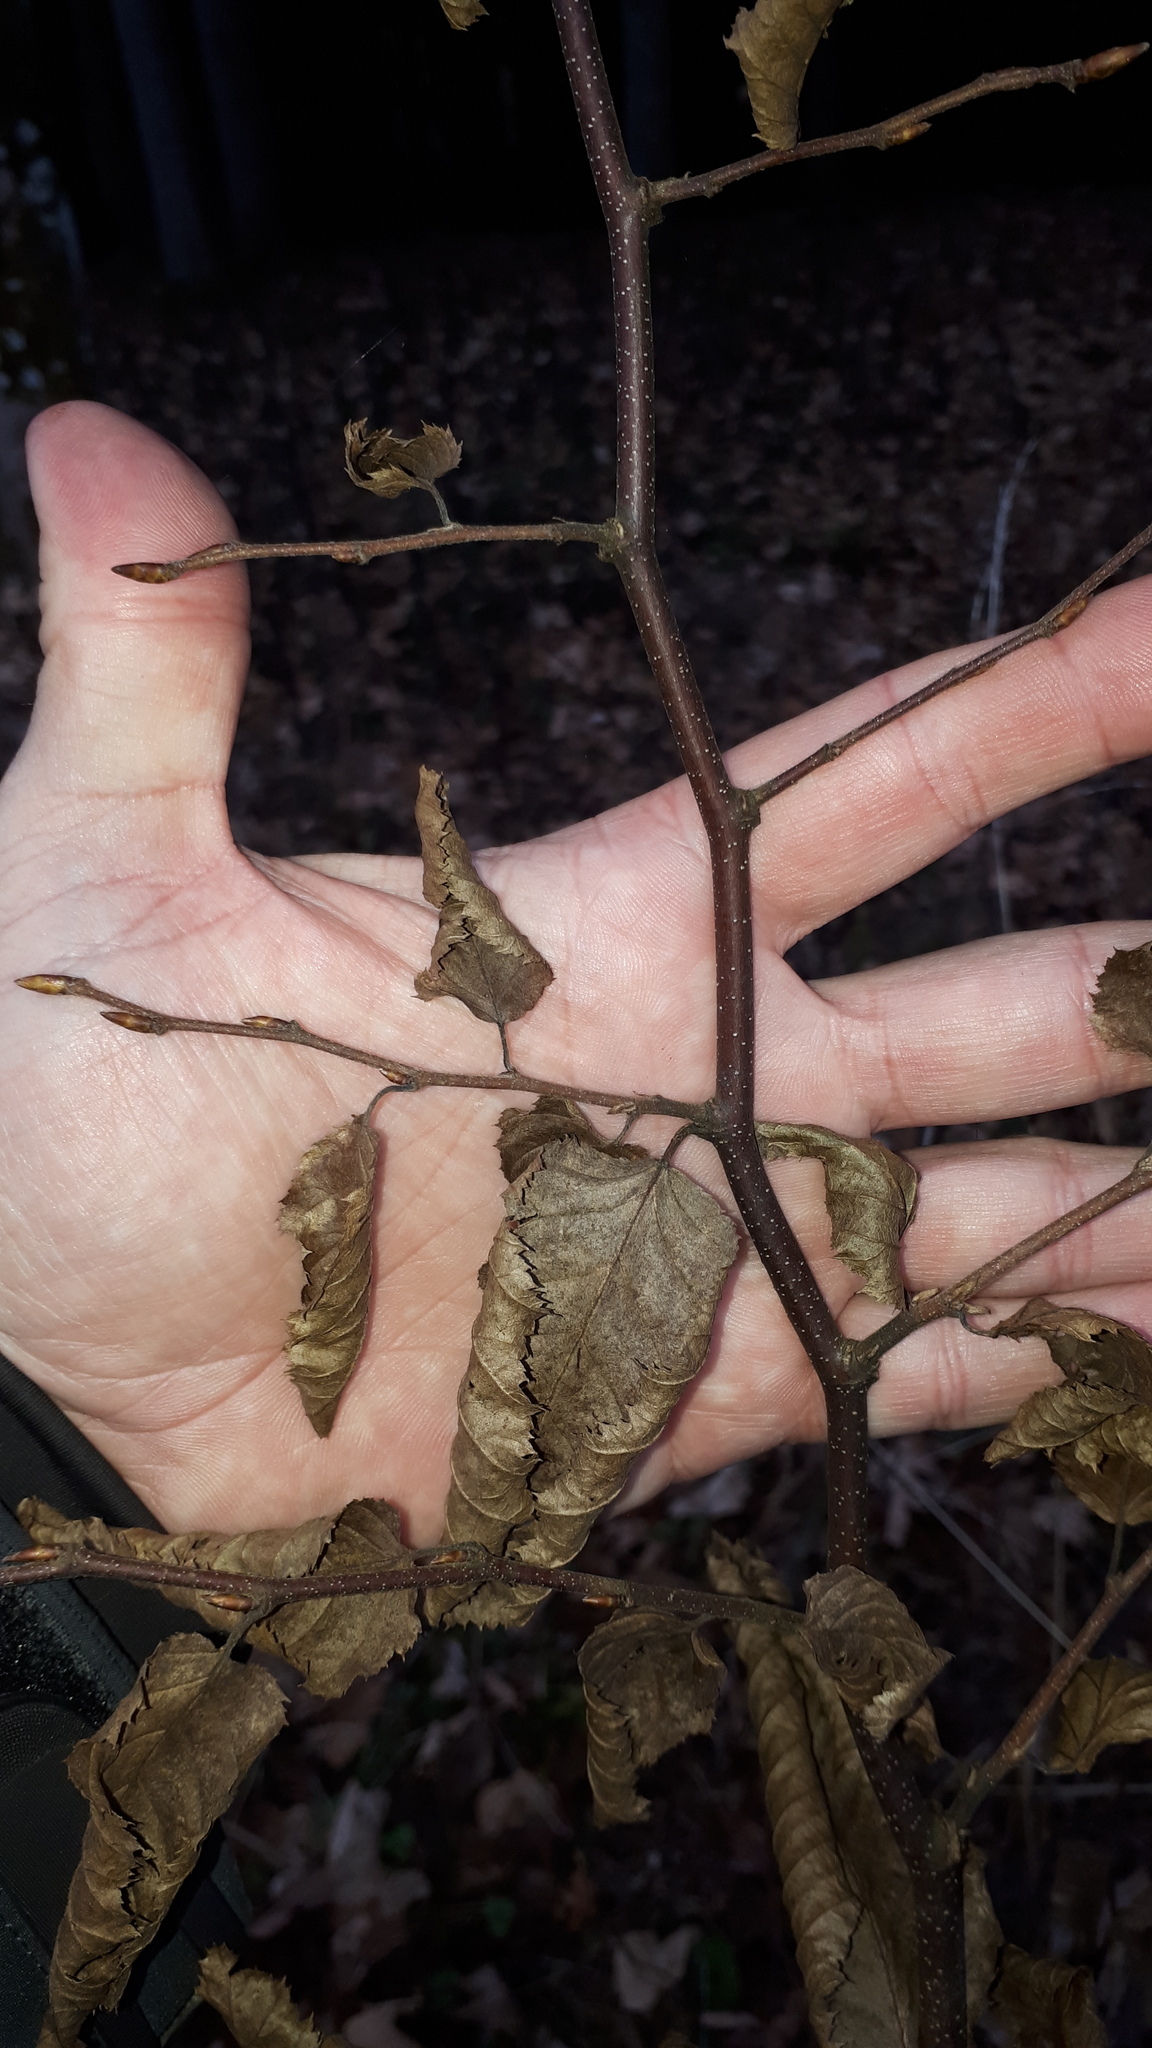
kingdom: Plantae
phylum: Tracheophyta
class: Magnoliopsida
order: Fagales
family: Betulaceae
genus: Carpinus
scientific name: Carpinus betulus
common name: Hornbeam
